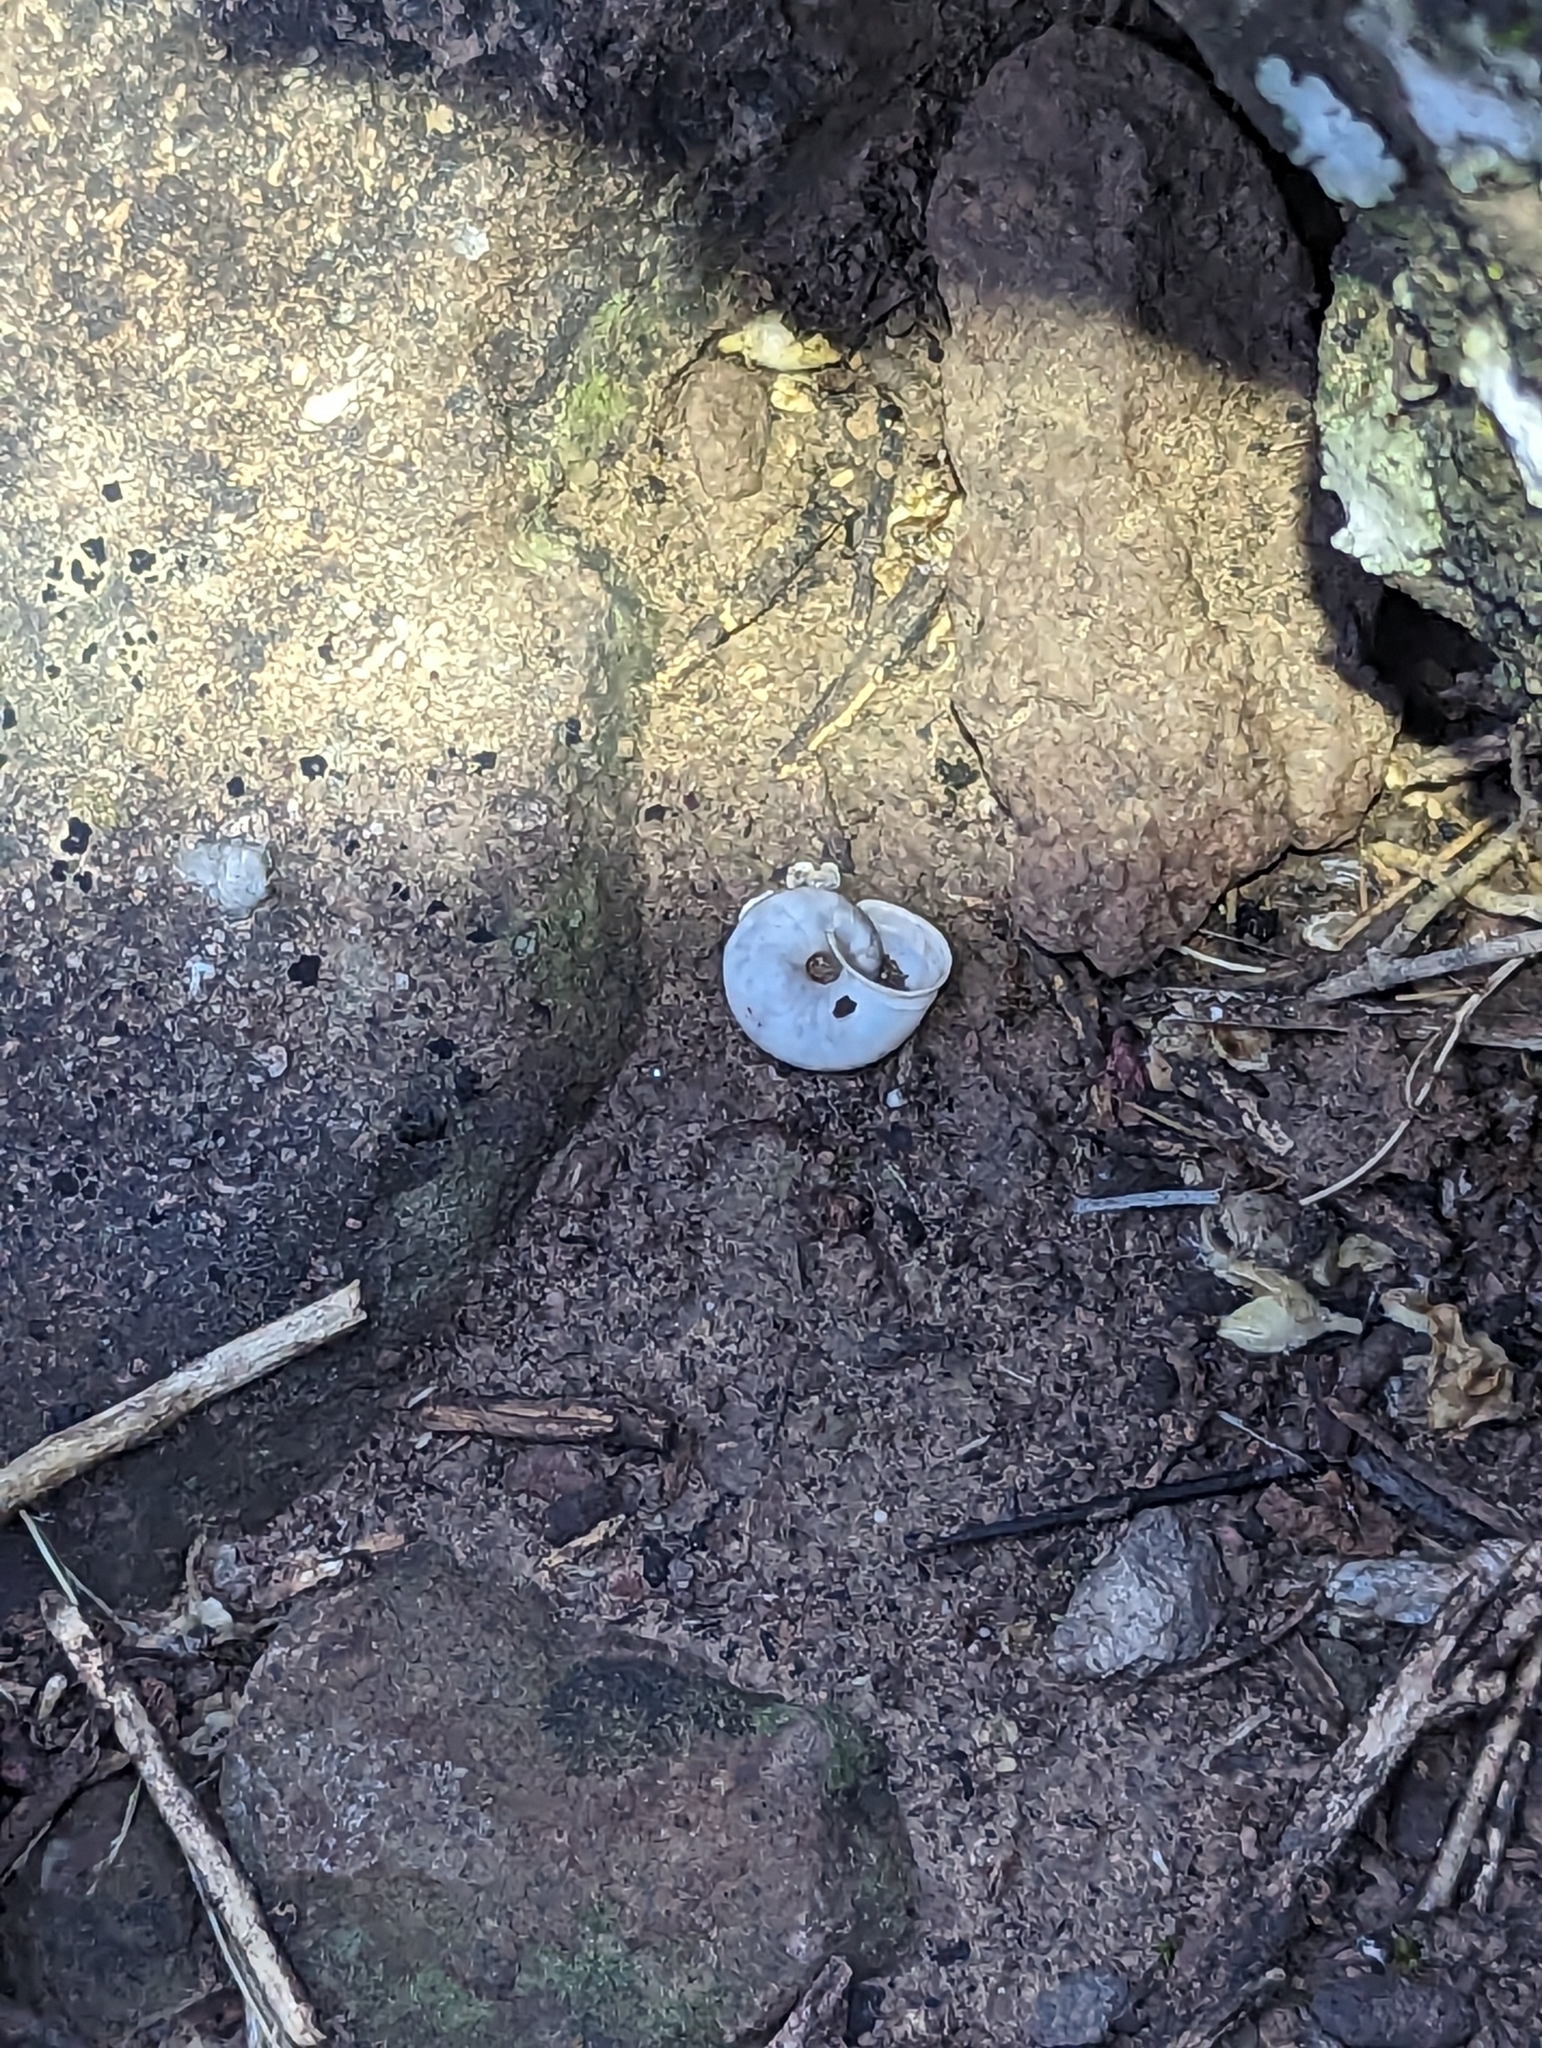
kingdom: Animalia
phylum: Mollusca
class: Gastropoda
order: Stylommatophora
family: Xanthonychidae
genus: Maricopella
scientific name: Maricopella allynsmithi
